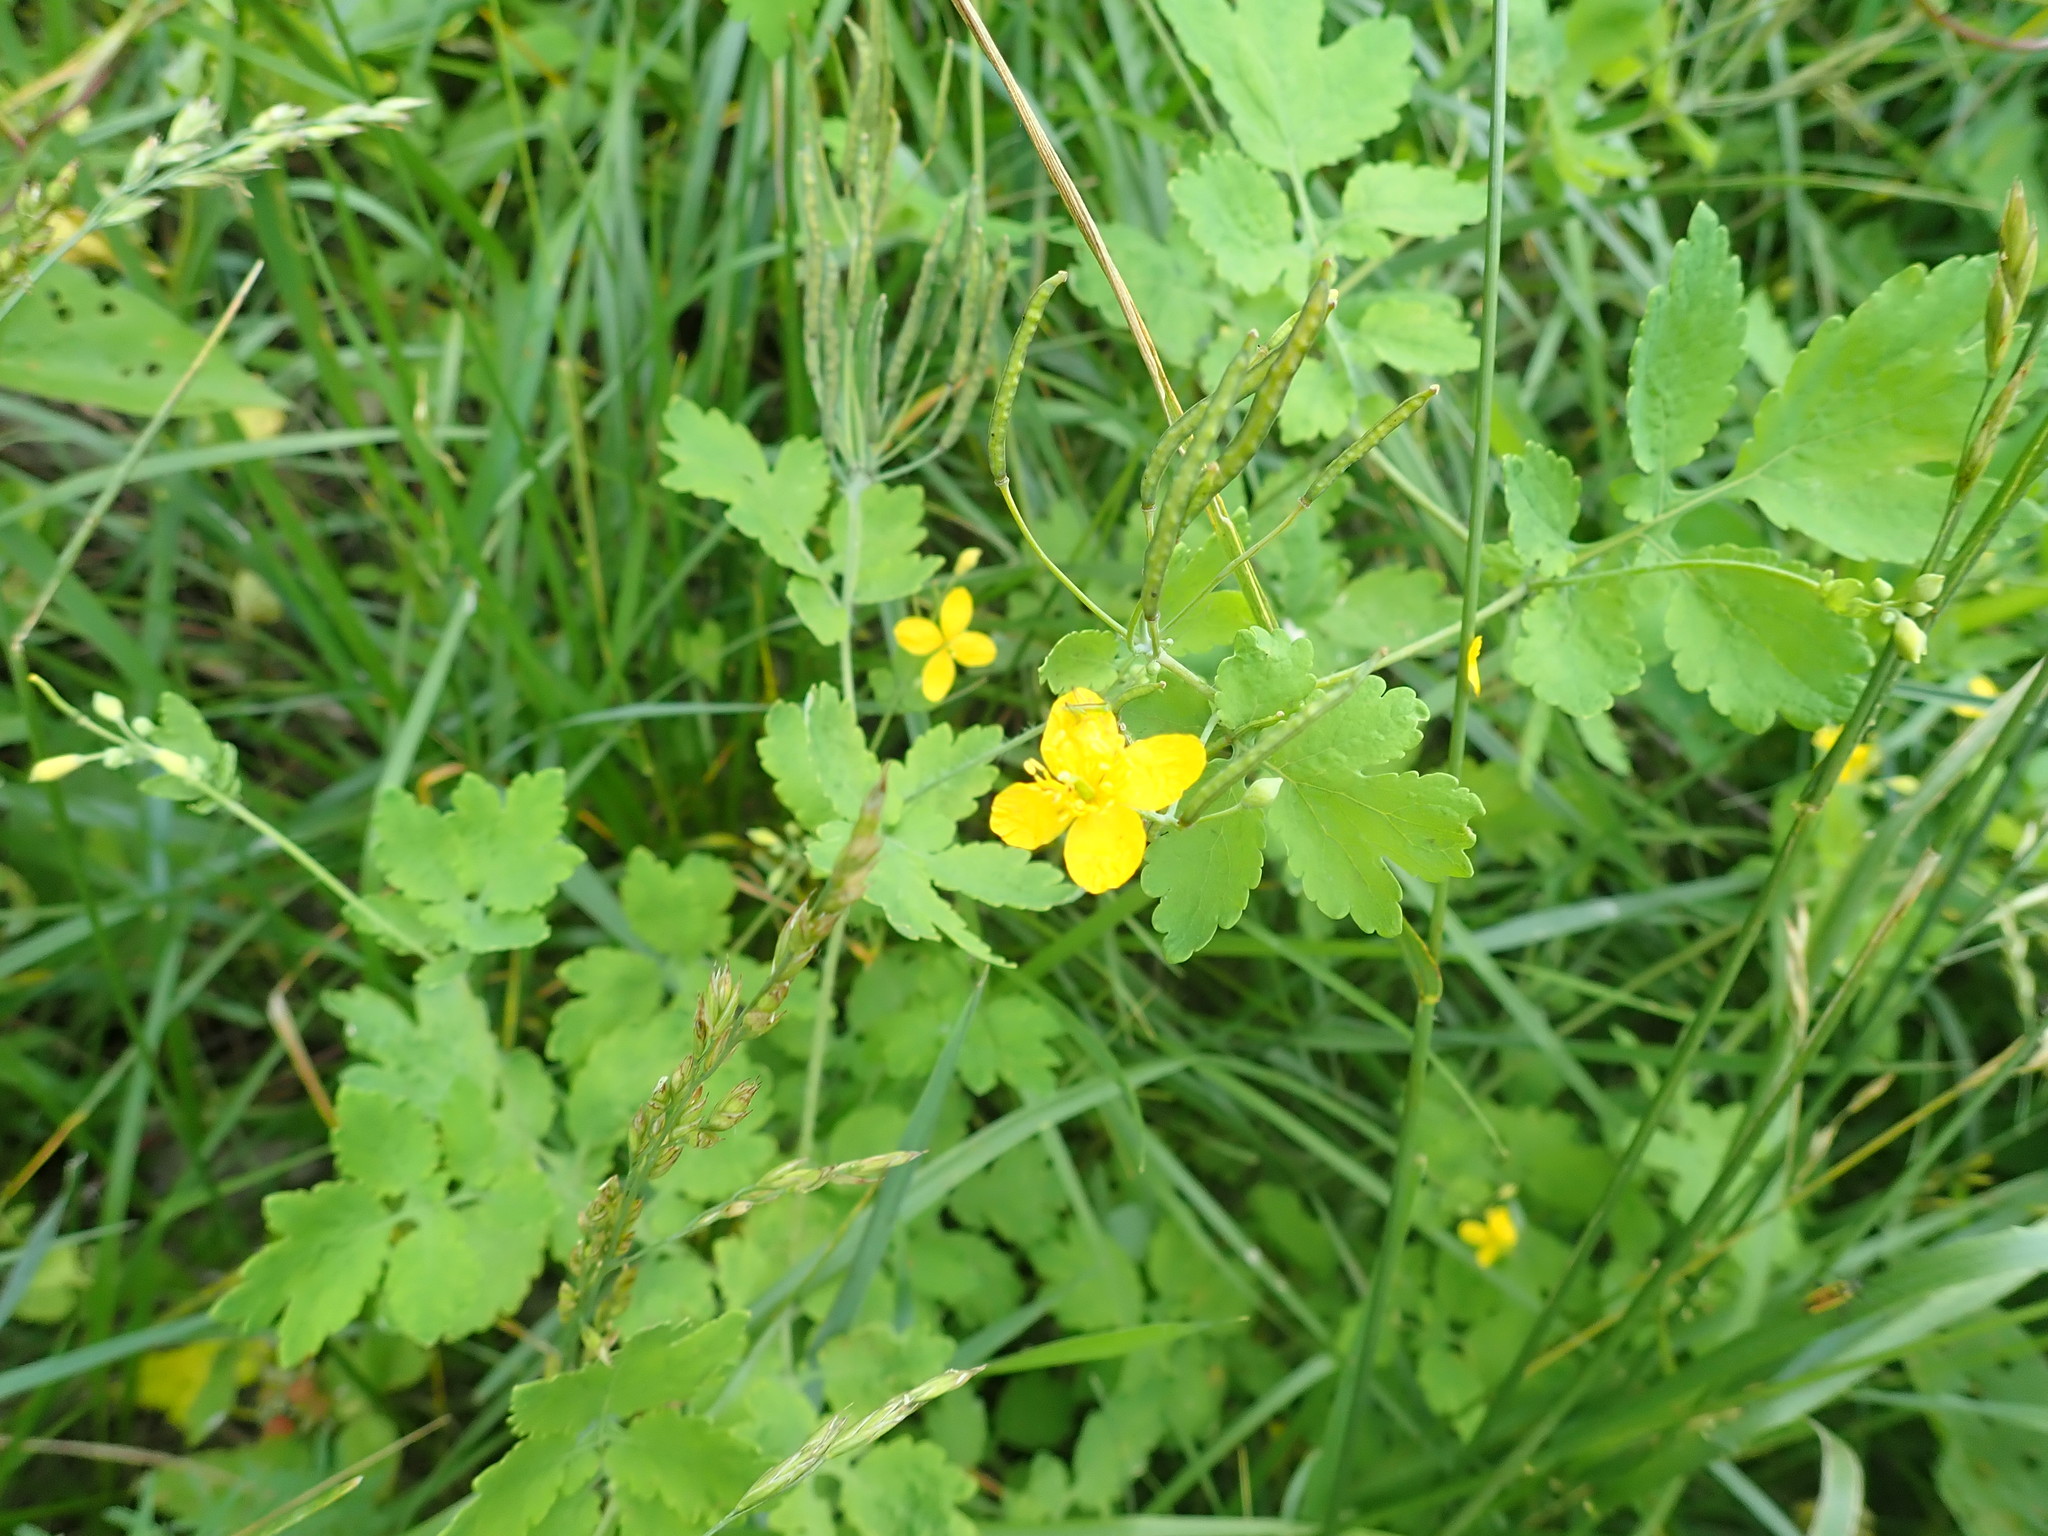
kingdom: Plantae
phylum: Tracheophyta
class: Magnoliopsida
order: Ranunculales
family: Papaveraceae
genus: Chelidonium
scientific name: Chelidonium majus
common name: Greater celandine
